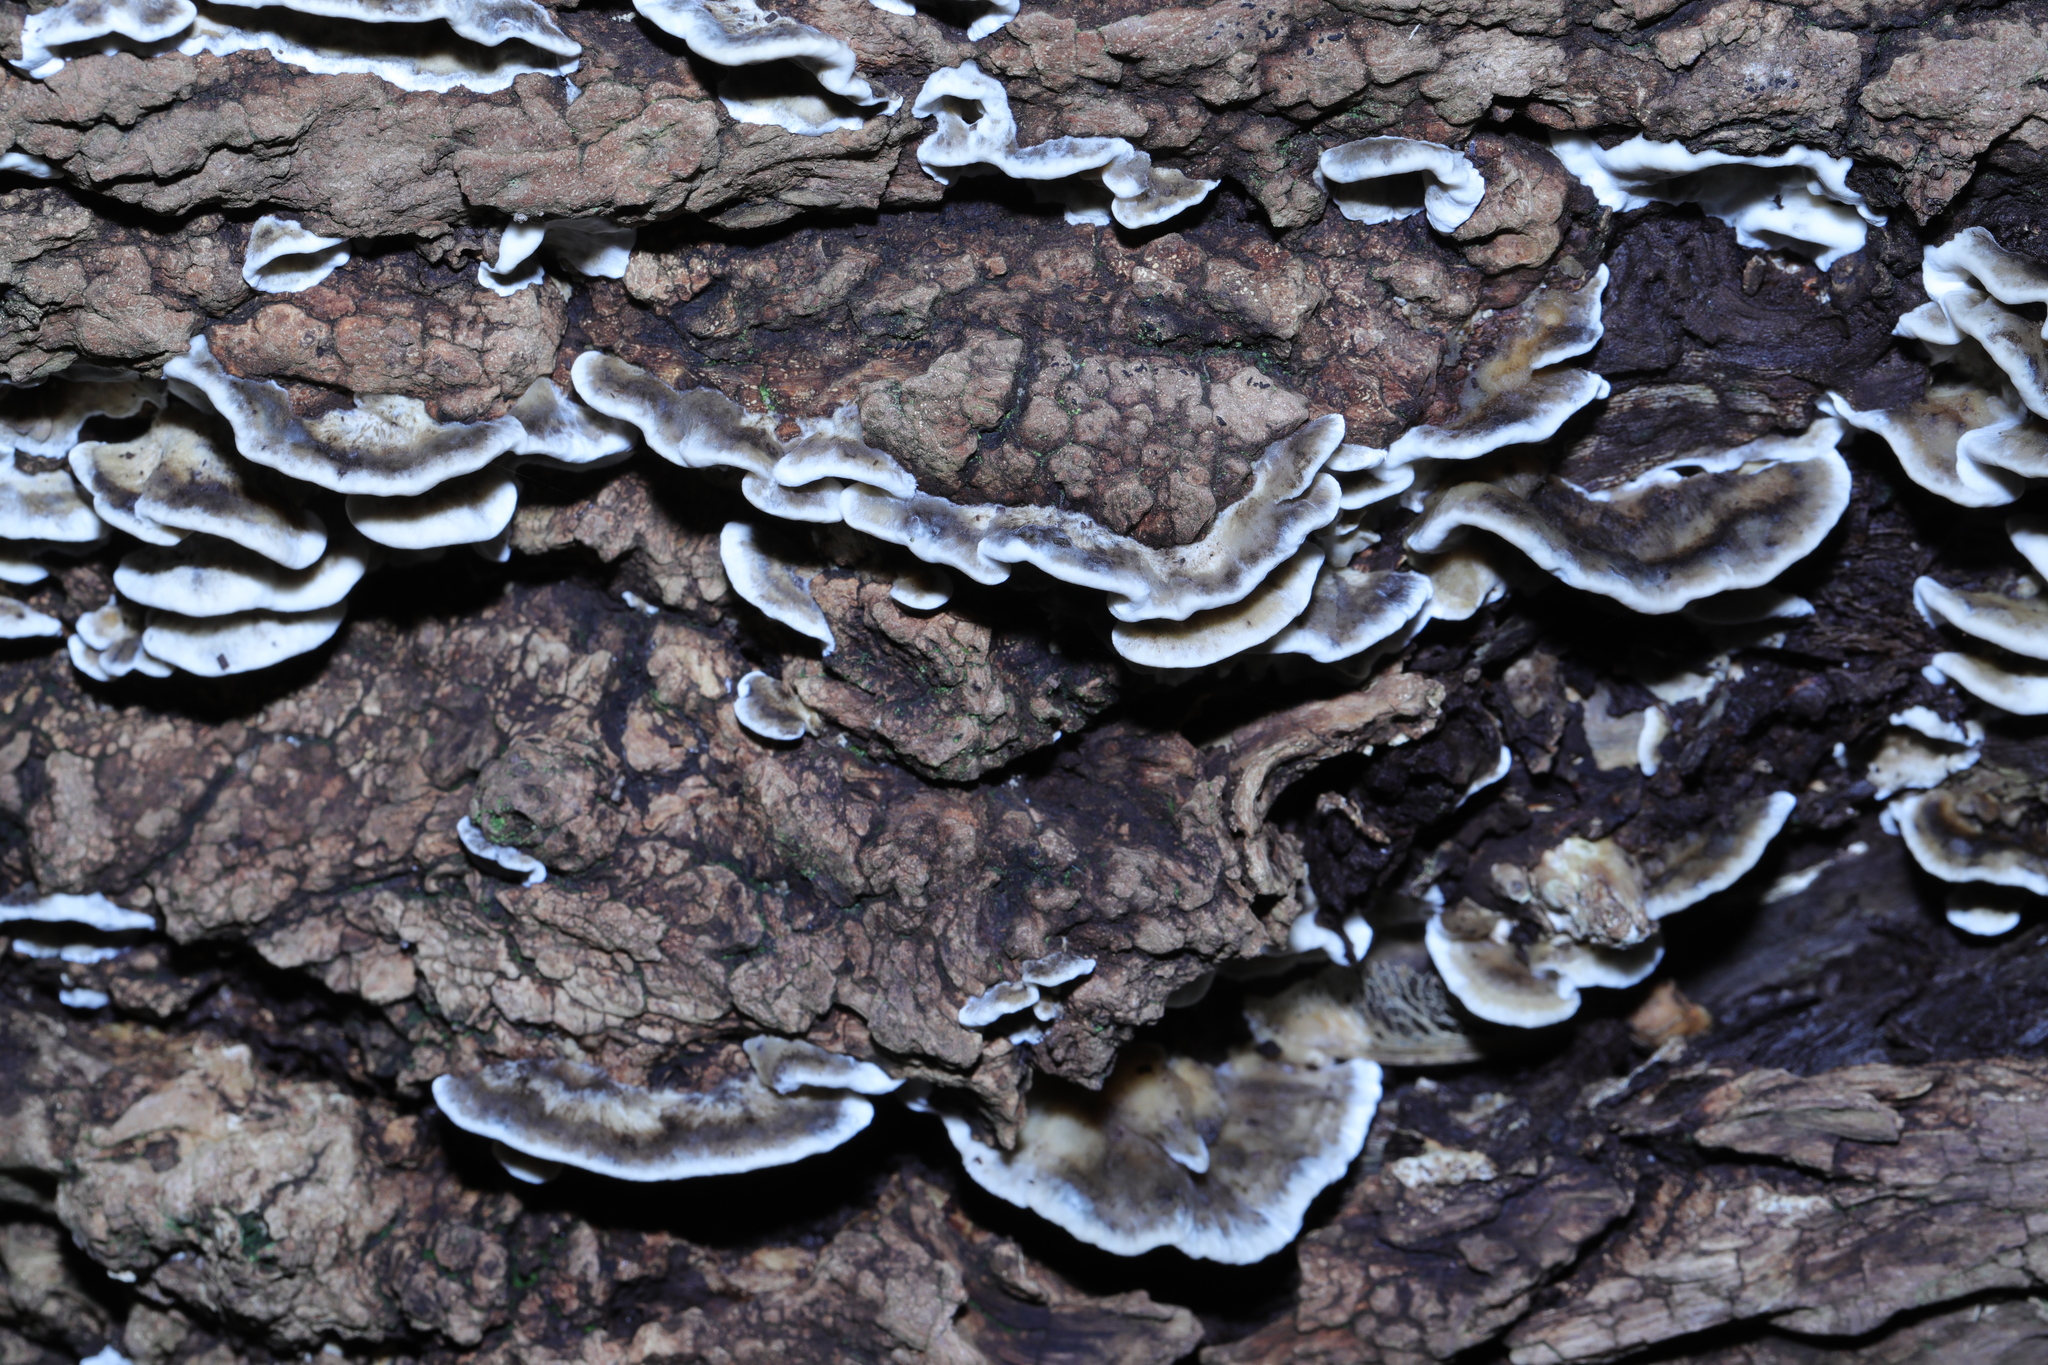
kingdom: Fungi
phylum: Basidiomycota
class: Agaricomycetes
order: Polyporales
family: Phanerochaetaceae
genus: Bjerkandera
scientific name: Bjerkandera adusta
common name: Smoky bracket
